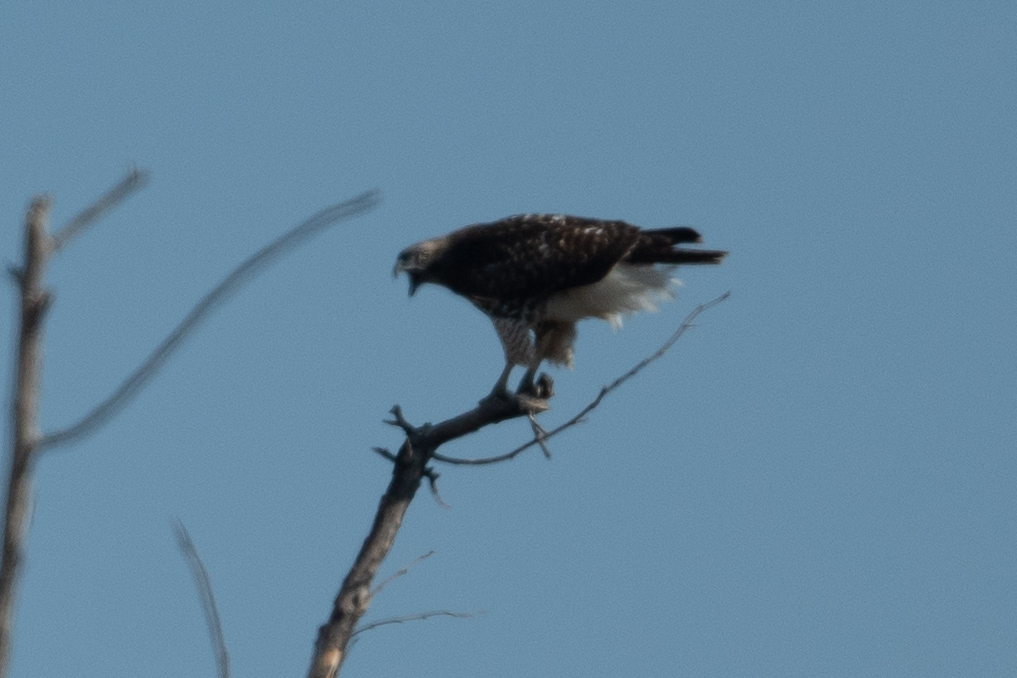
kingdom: Animalia
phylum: Chordata
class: Aves
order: Accipitriformes
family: Accipitridae
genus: Buteo
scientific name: Buteo jamaicensis
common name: Red-tailed hawk
